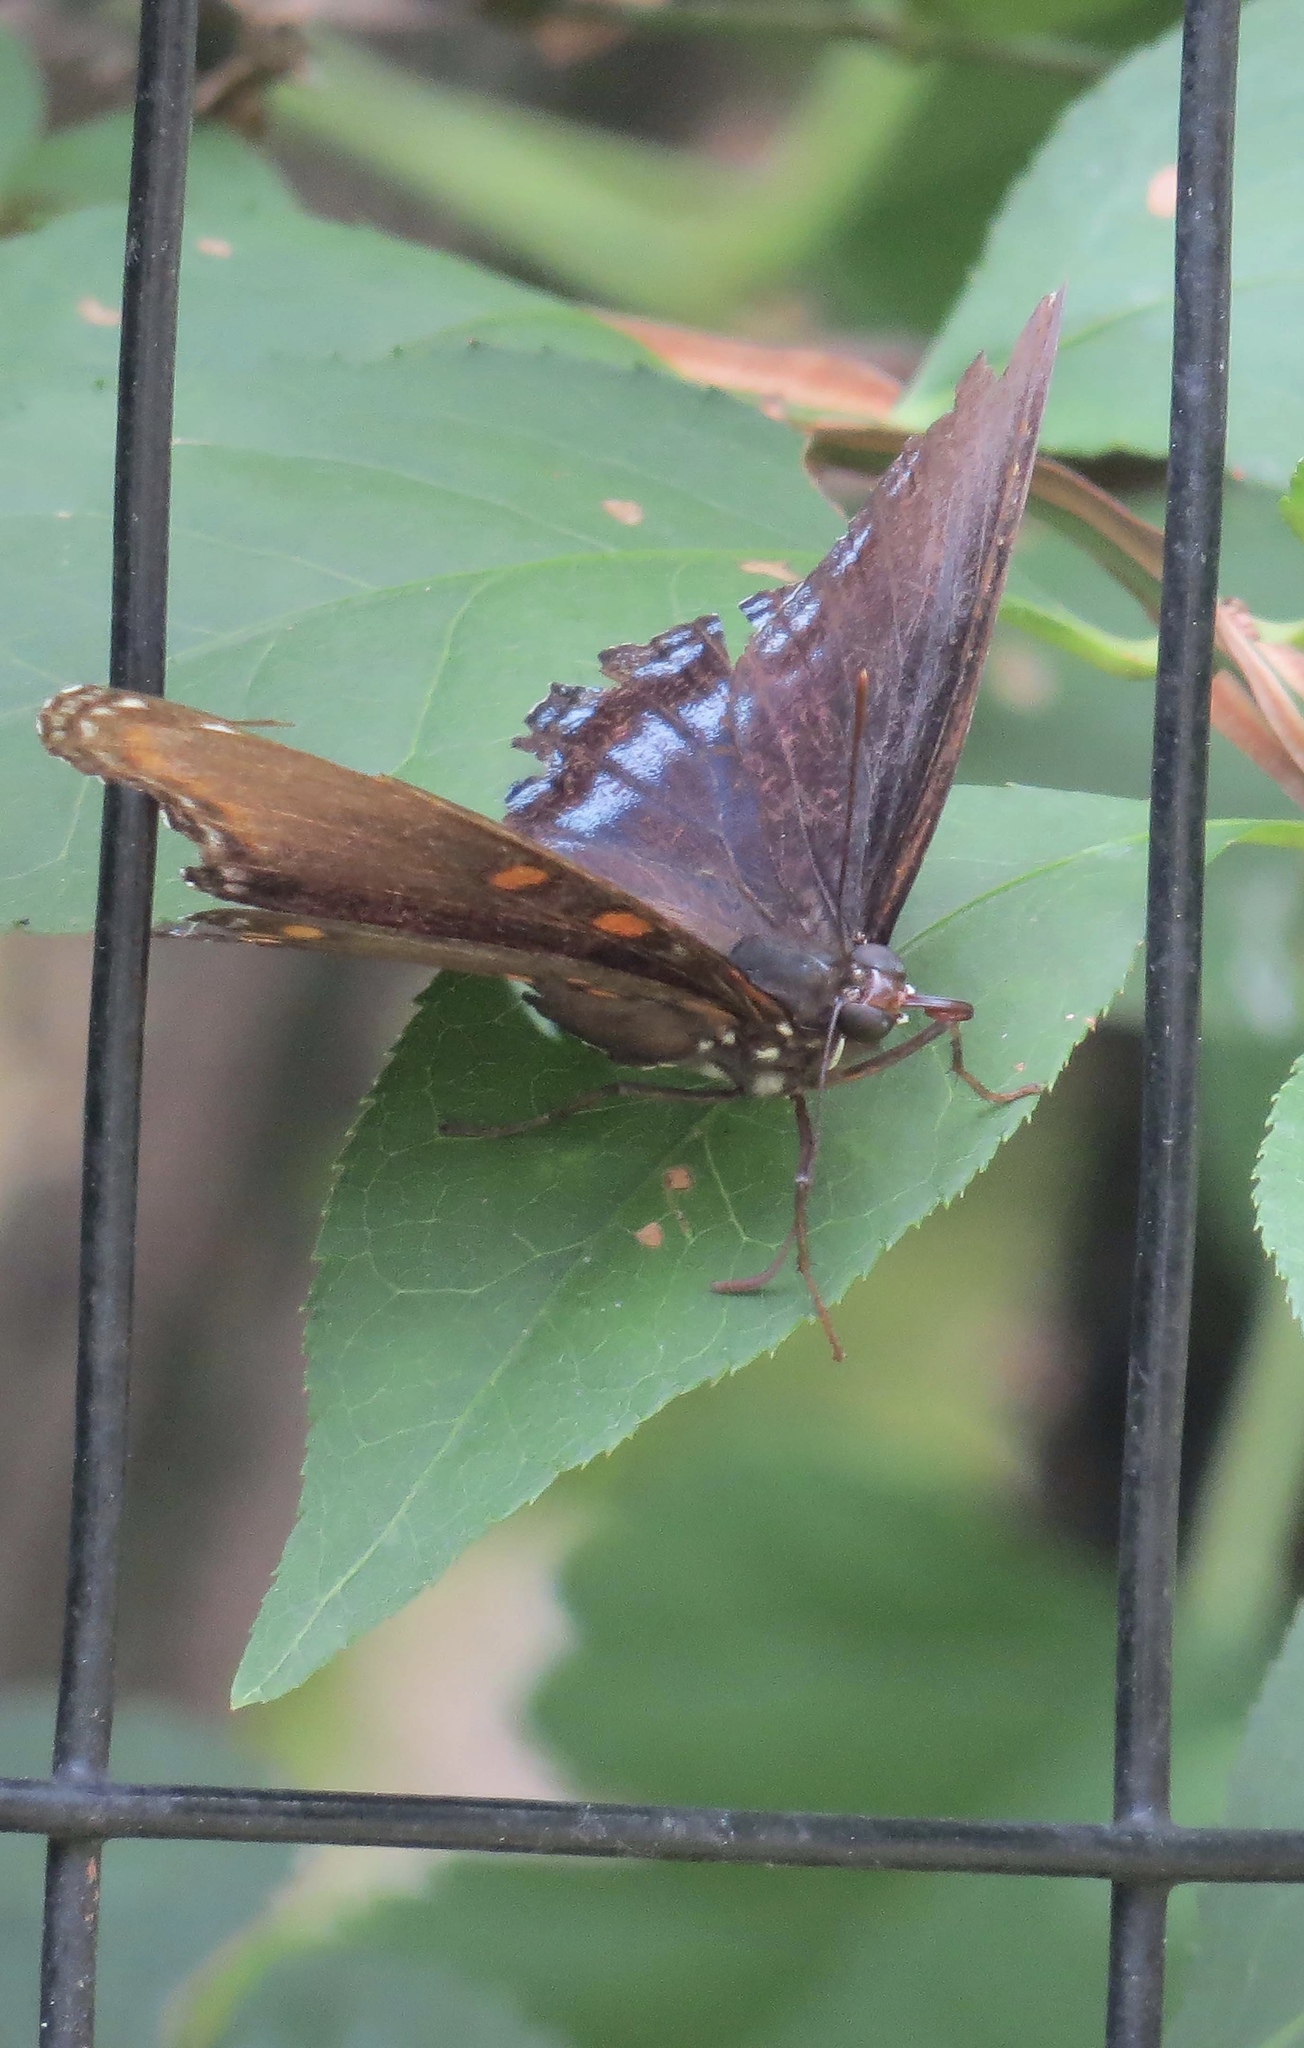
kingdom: Animalia
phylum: Arthropoda
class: Insecta
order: Lepidoptera
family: Nymphalidae
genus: Limenitis
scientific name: Limenitis astyanax
